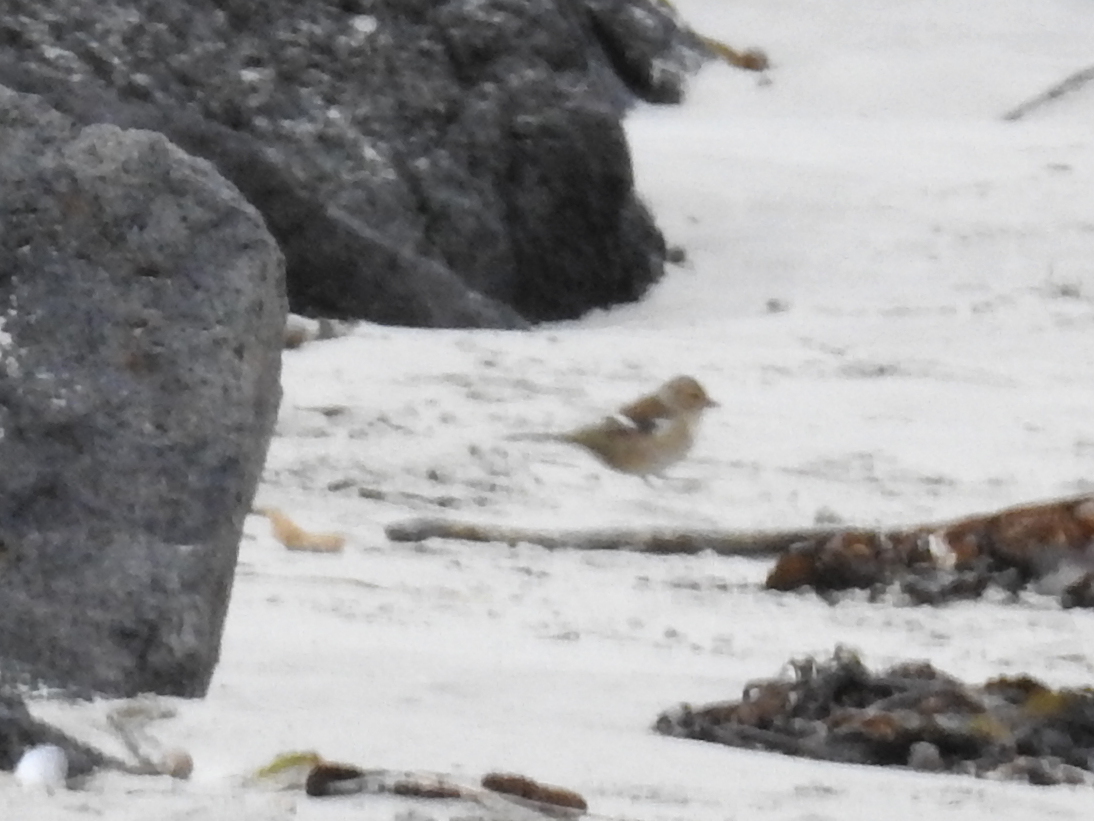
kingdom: Animalia
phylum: Chordata
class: Aves
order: Passeriformes
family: Fringillidae
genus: Fringilla
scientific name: Fringilla coelebs
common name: Common chaffinch
